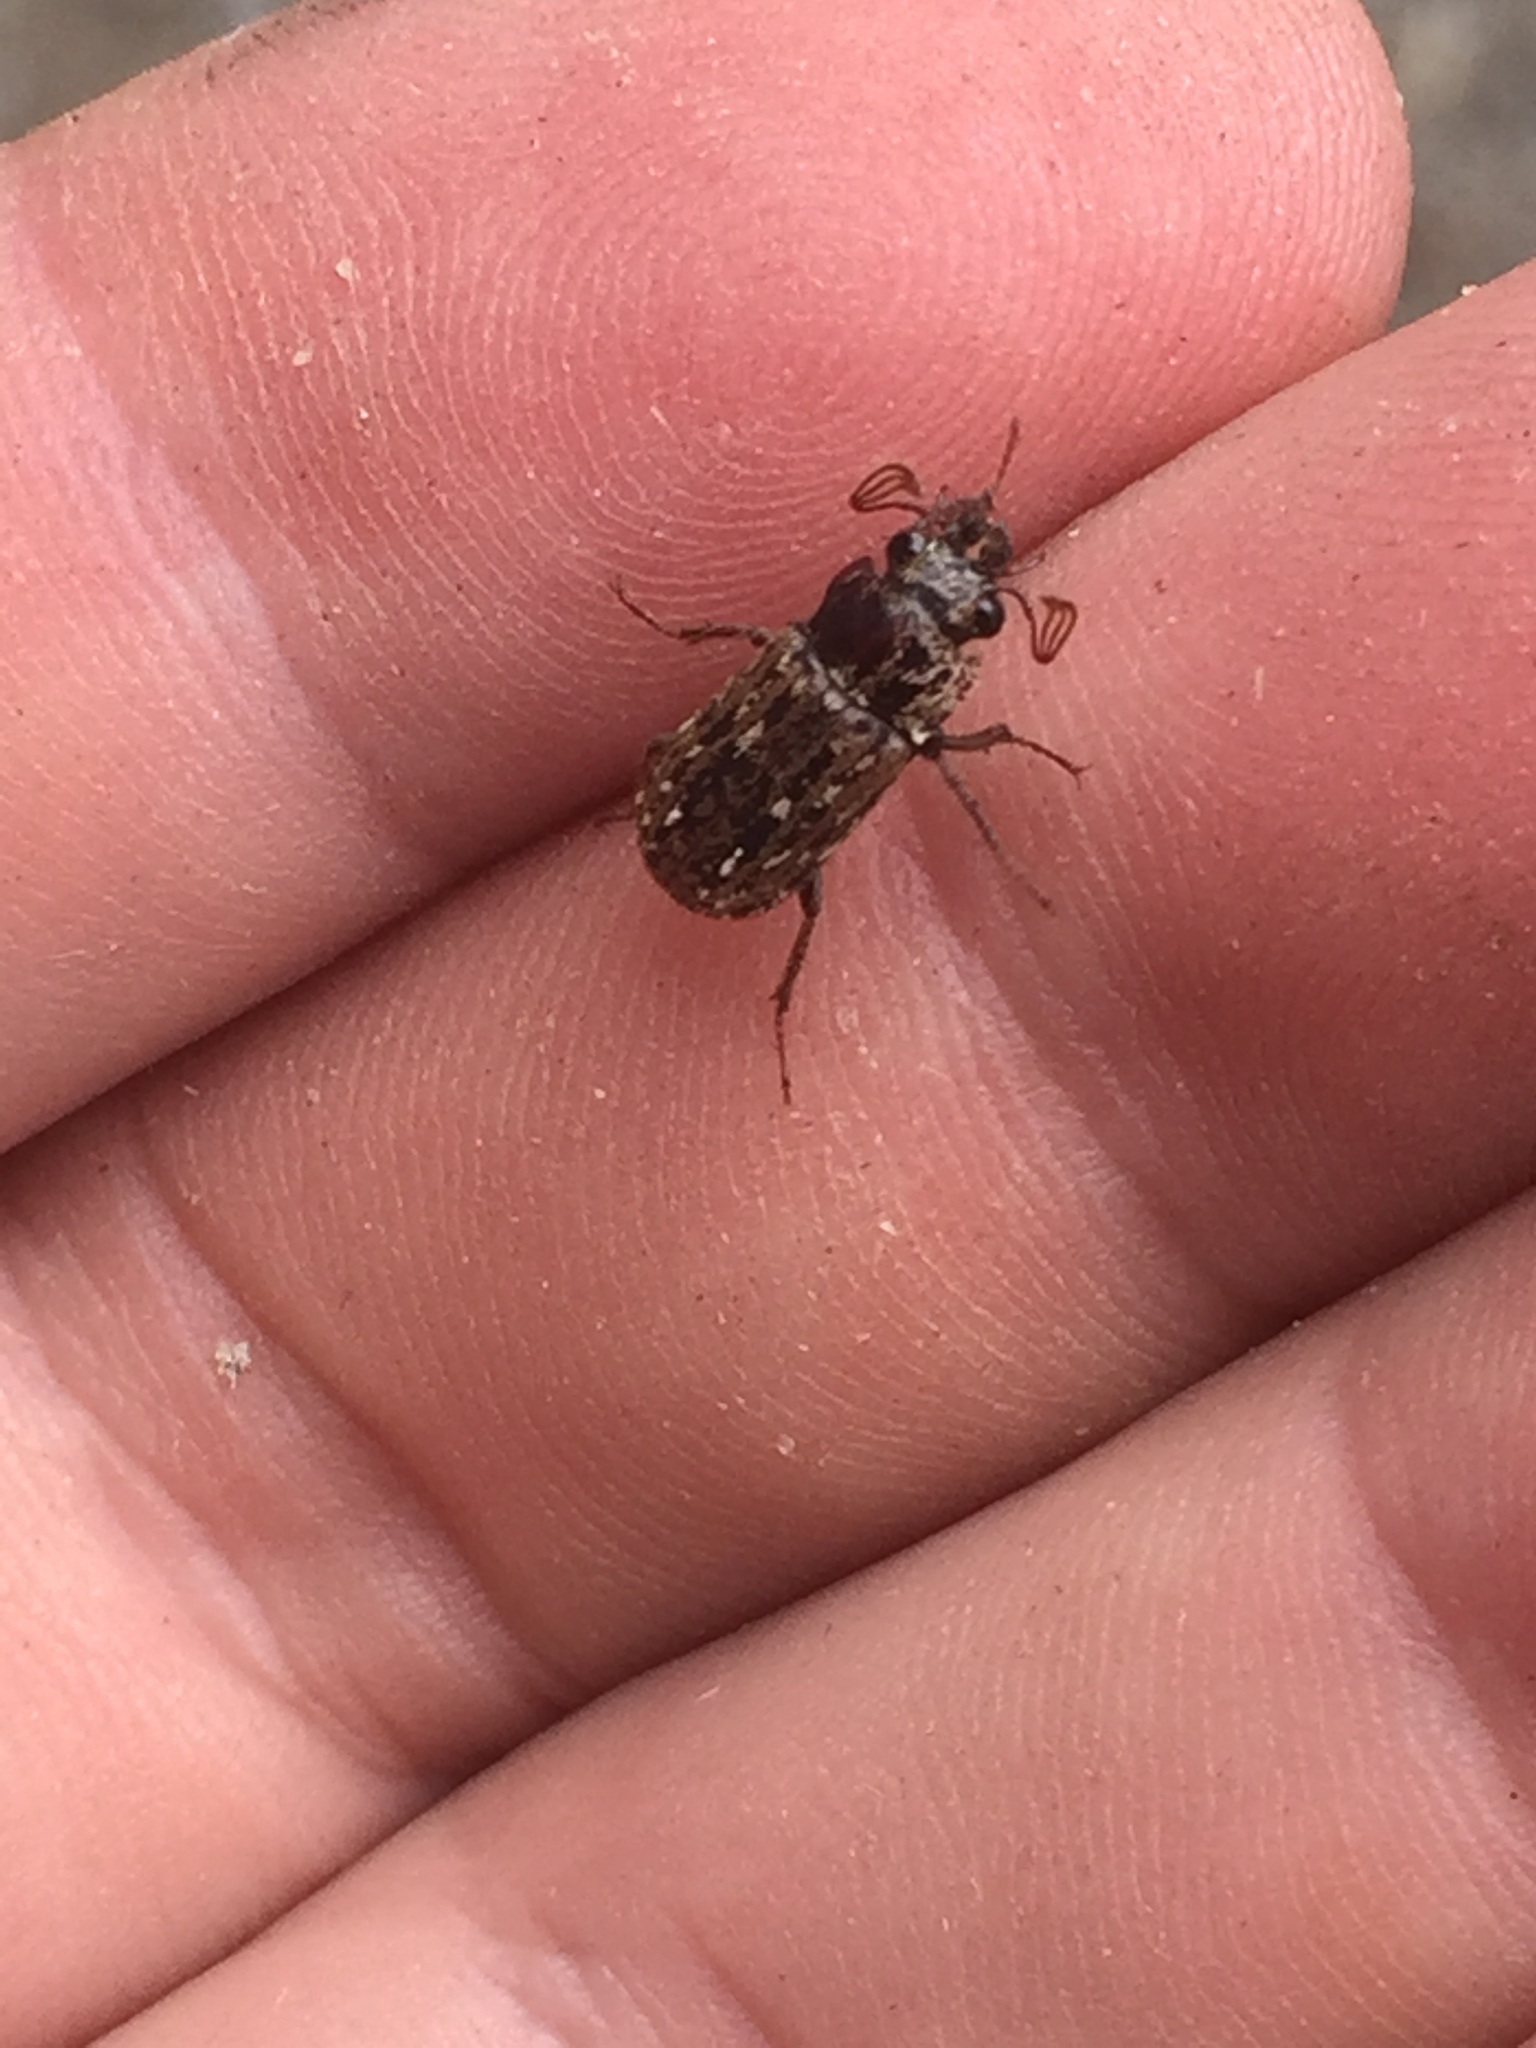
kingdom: Animalia
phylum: Arthropoda
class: Insecta
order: Coleoptera
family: Lucanidae
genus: Mitophyllus
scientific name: Mitophyllus irroratus
